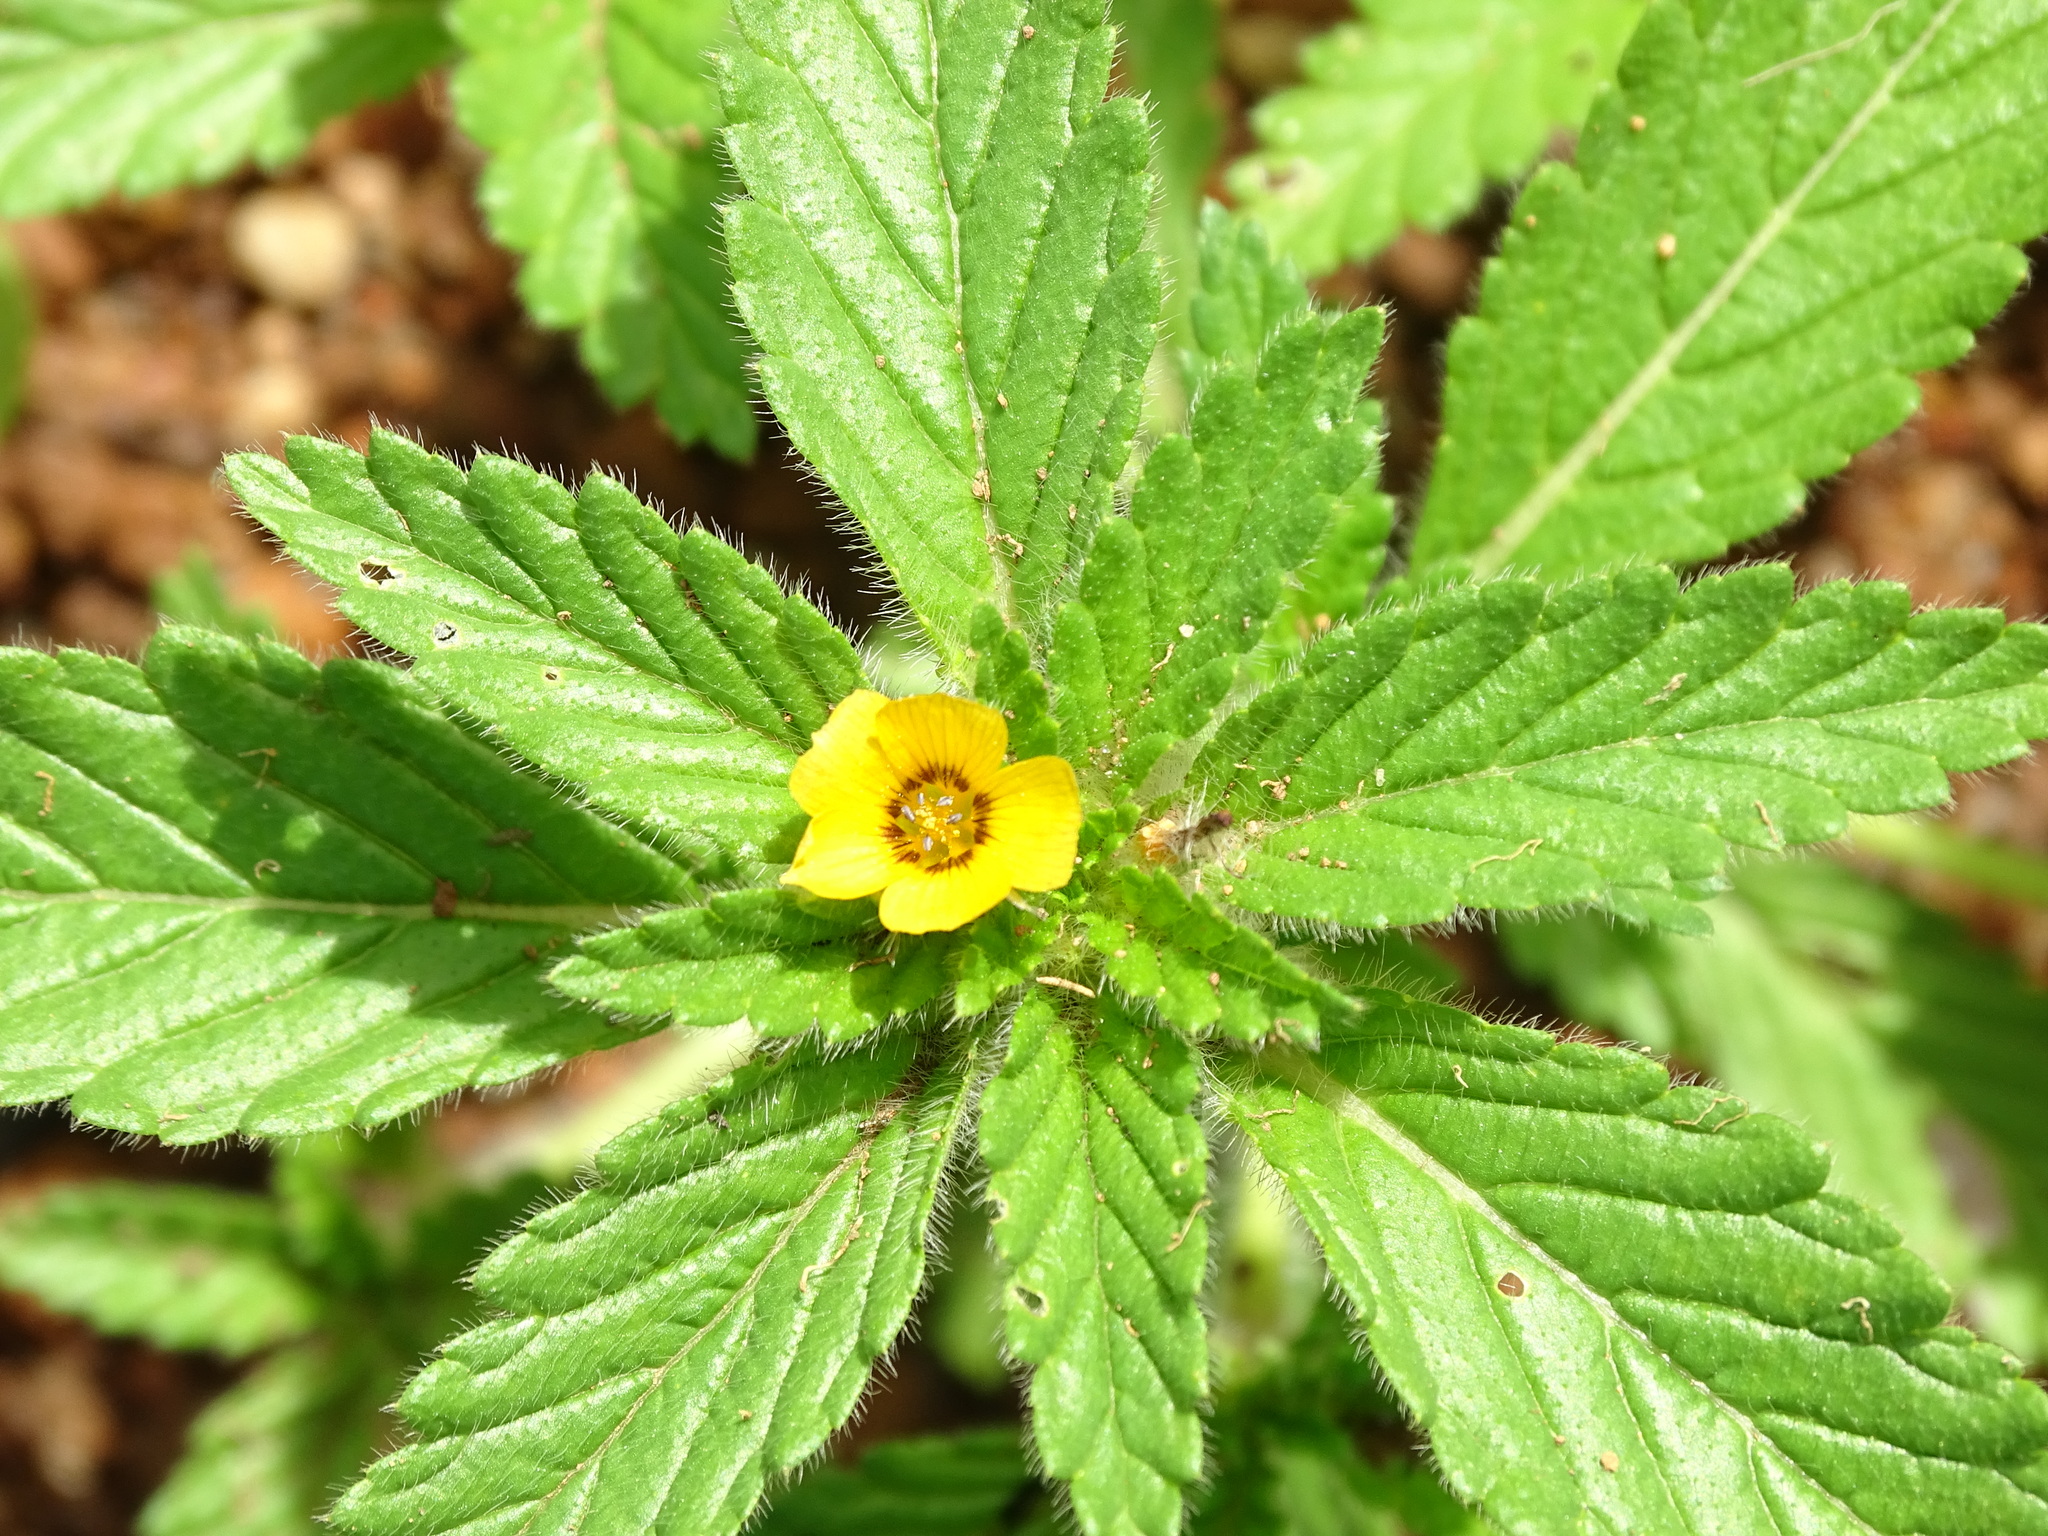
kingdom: Plantae
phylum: Tracheophyta
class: Magnoliopsida
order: Malpighiales
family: Turneraceae
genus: Turnera
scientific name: Turnera pumilea
